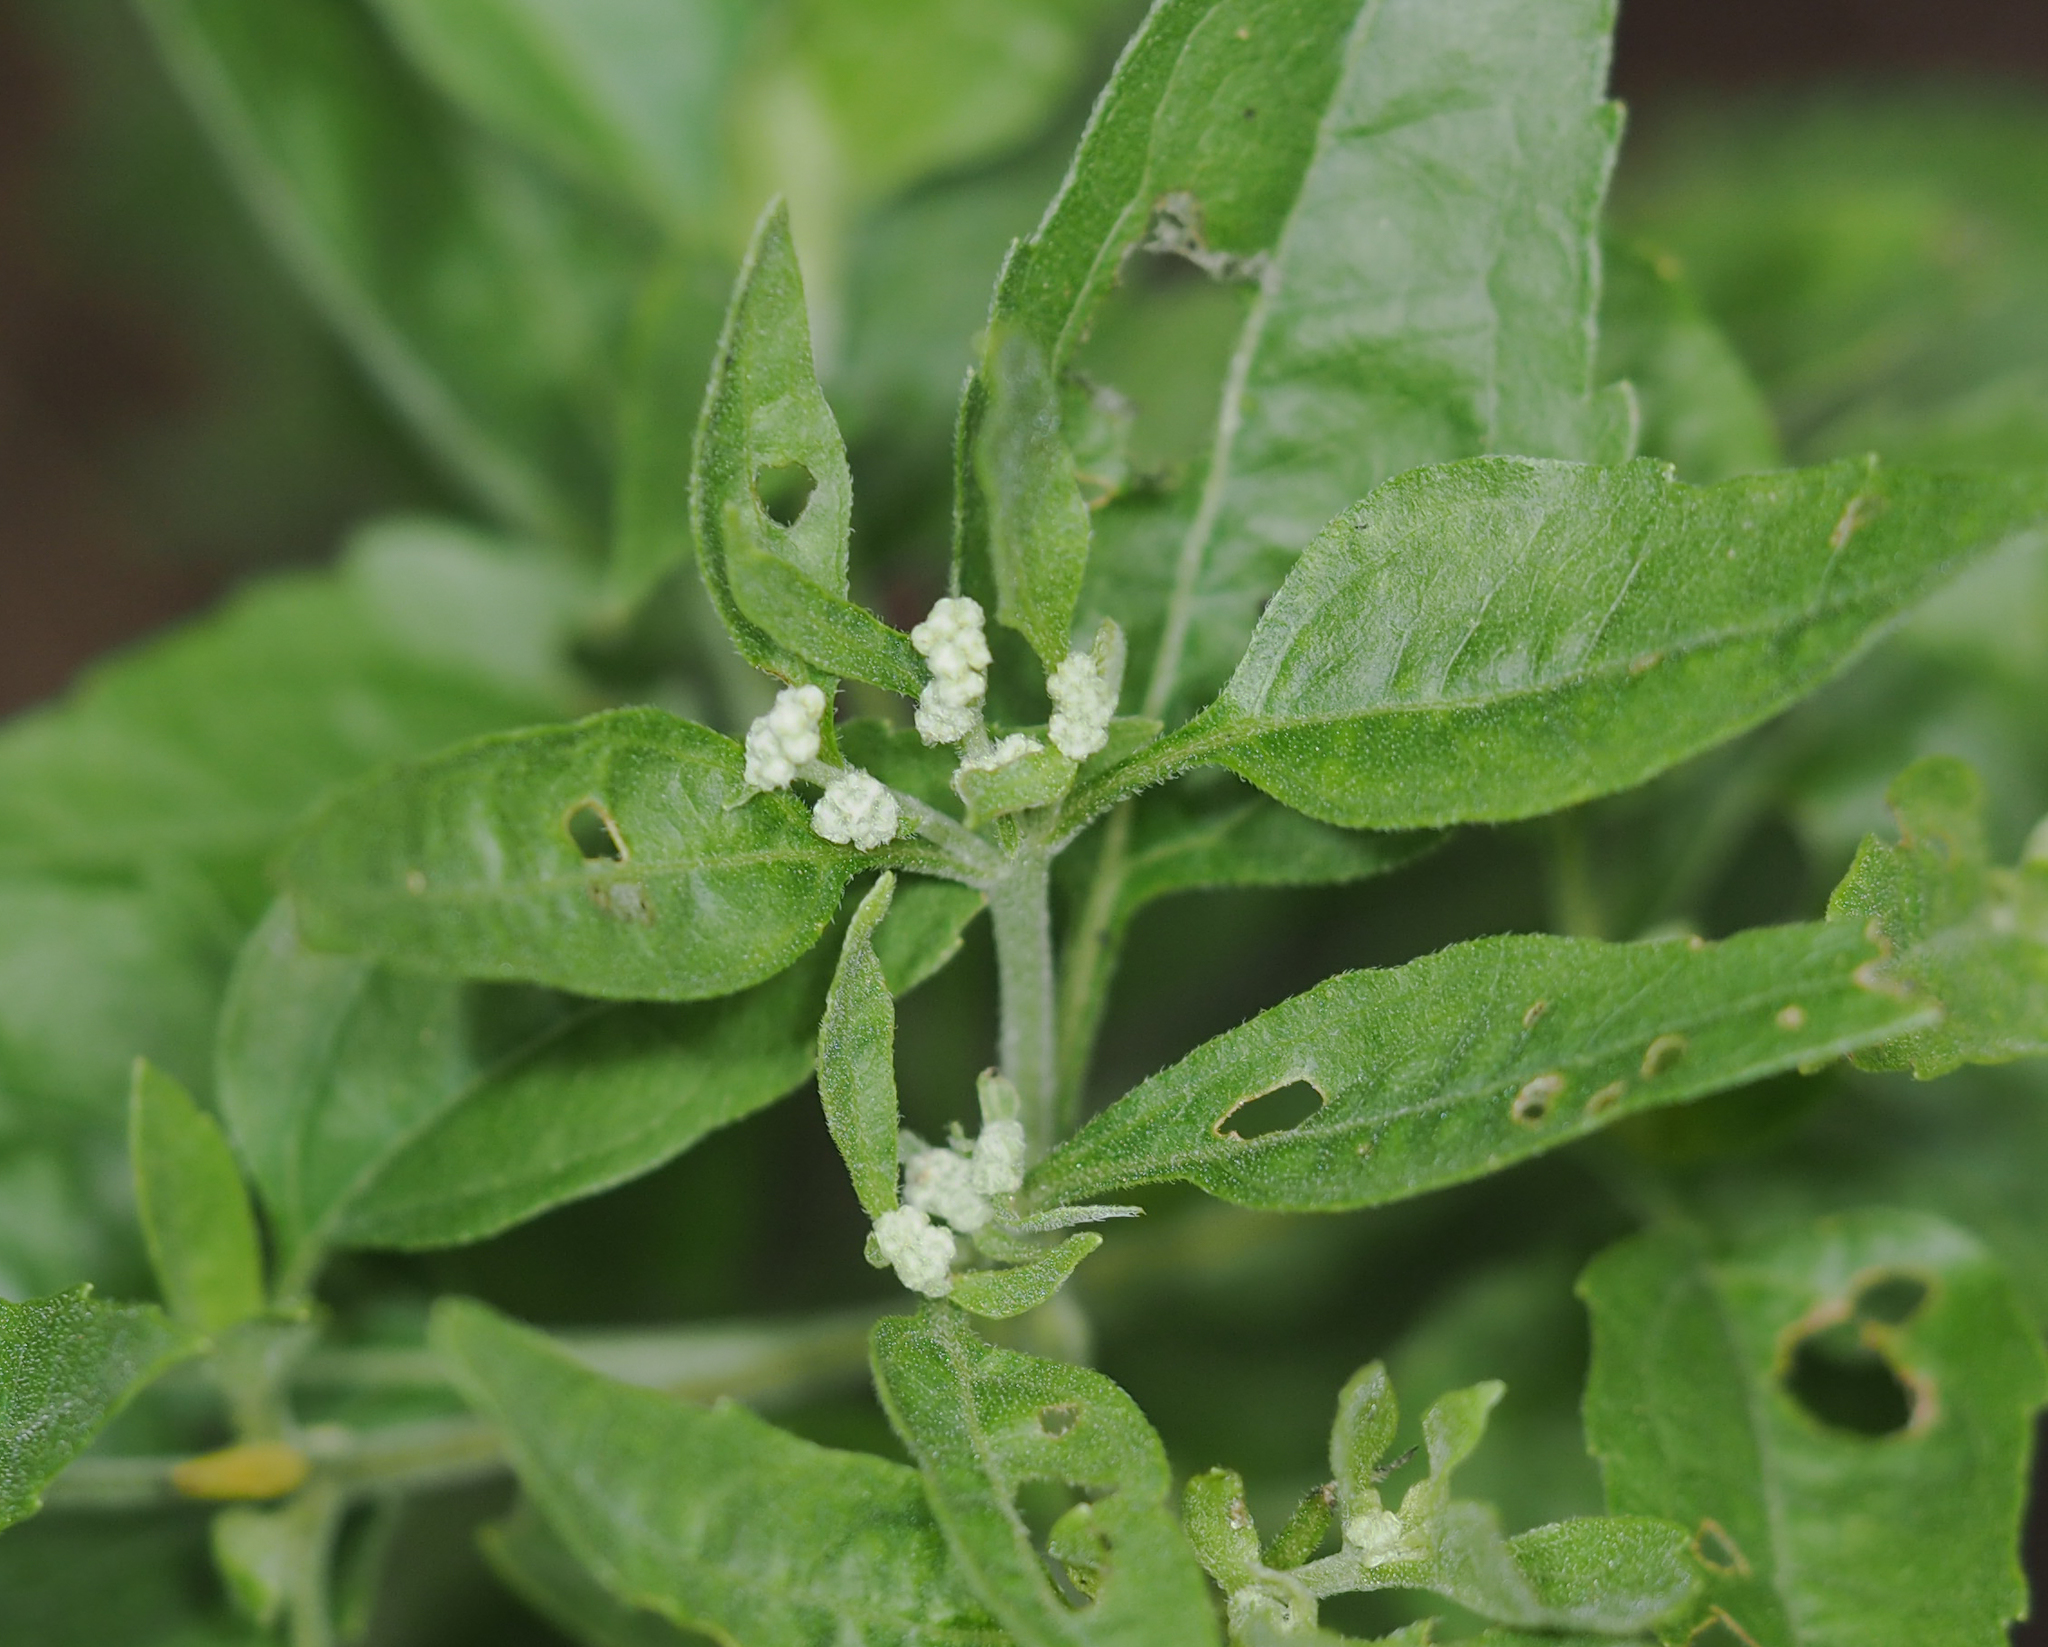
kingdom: Plantae
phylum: Tracheophyta
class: Magnoliopsida
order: Asterales
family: Asteraceae
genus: Eupatorium
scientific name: Eupatorium serotinum
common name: Late boneset
